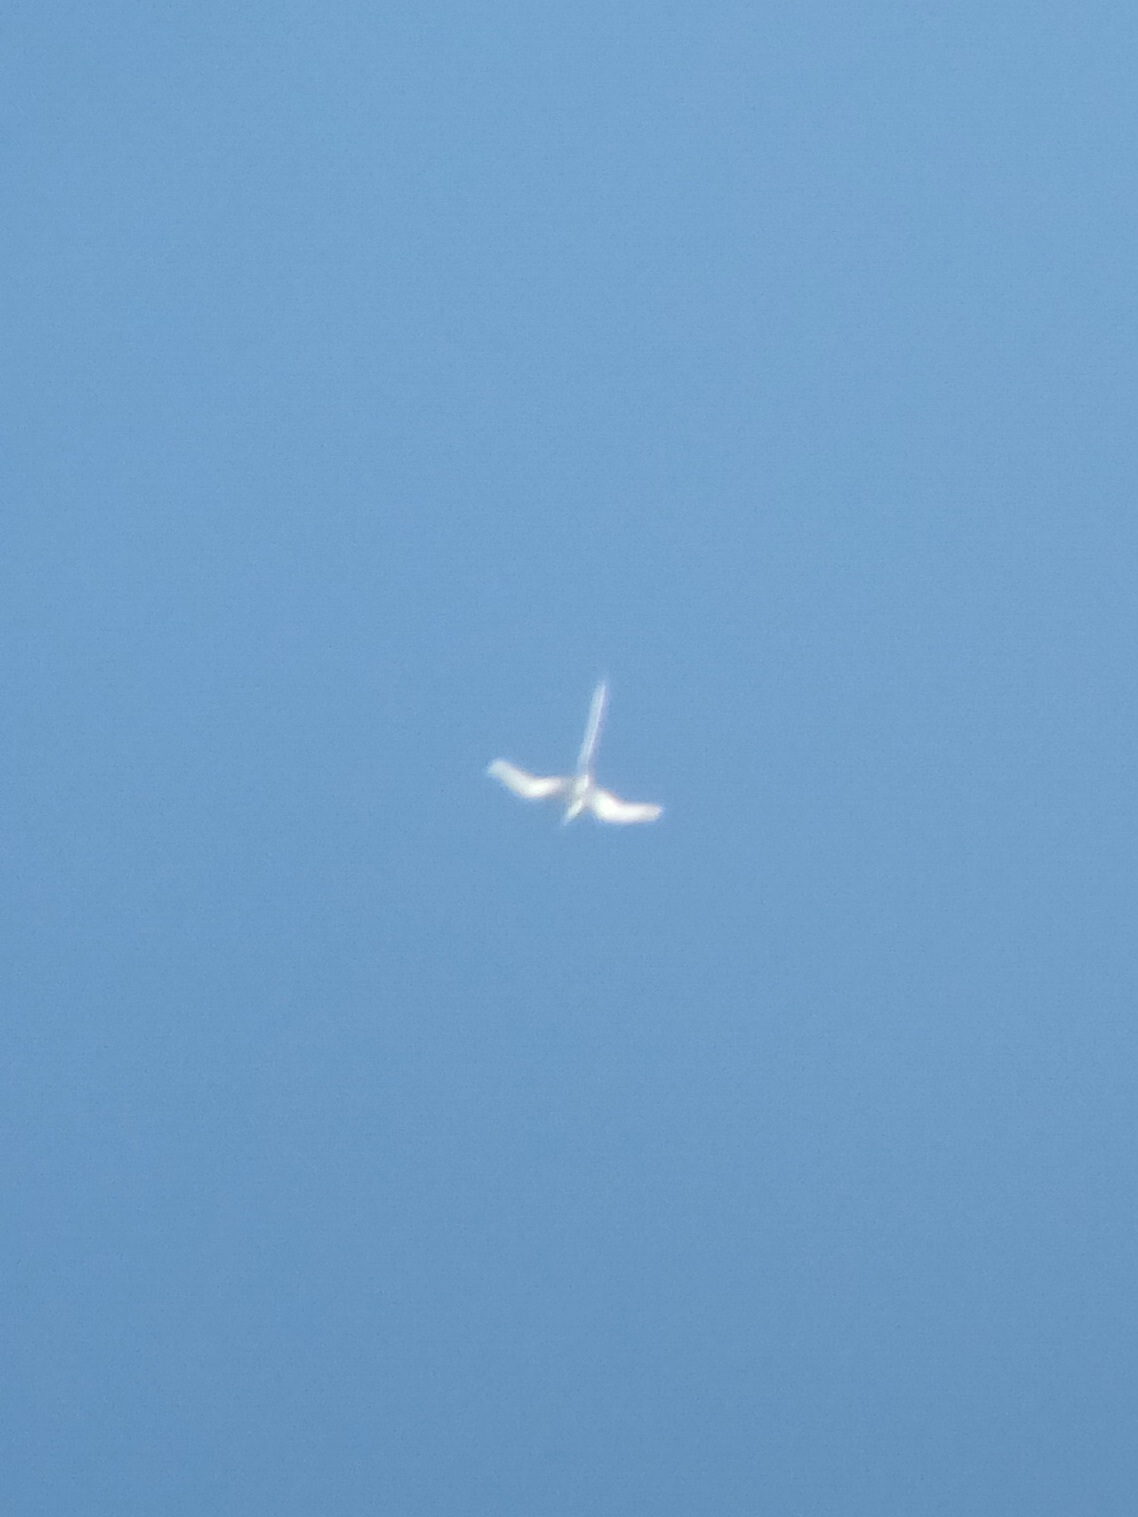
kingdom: Animalia
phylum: Chordata
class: Aves
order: Phaethontiformes
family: Phaethontidae
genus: Phaethon
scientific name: Phaethon lepturus
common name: White-tailed tropicbird
